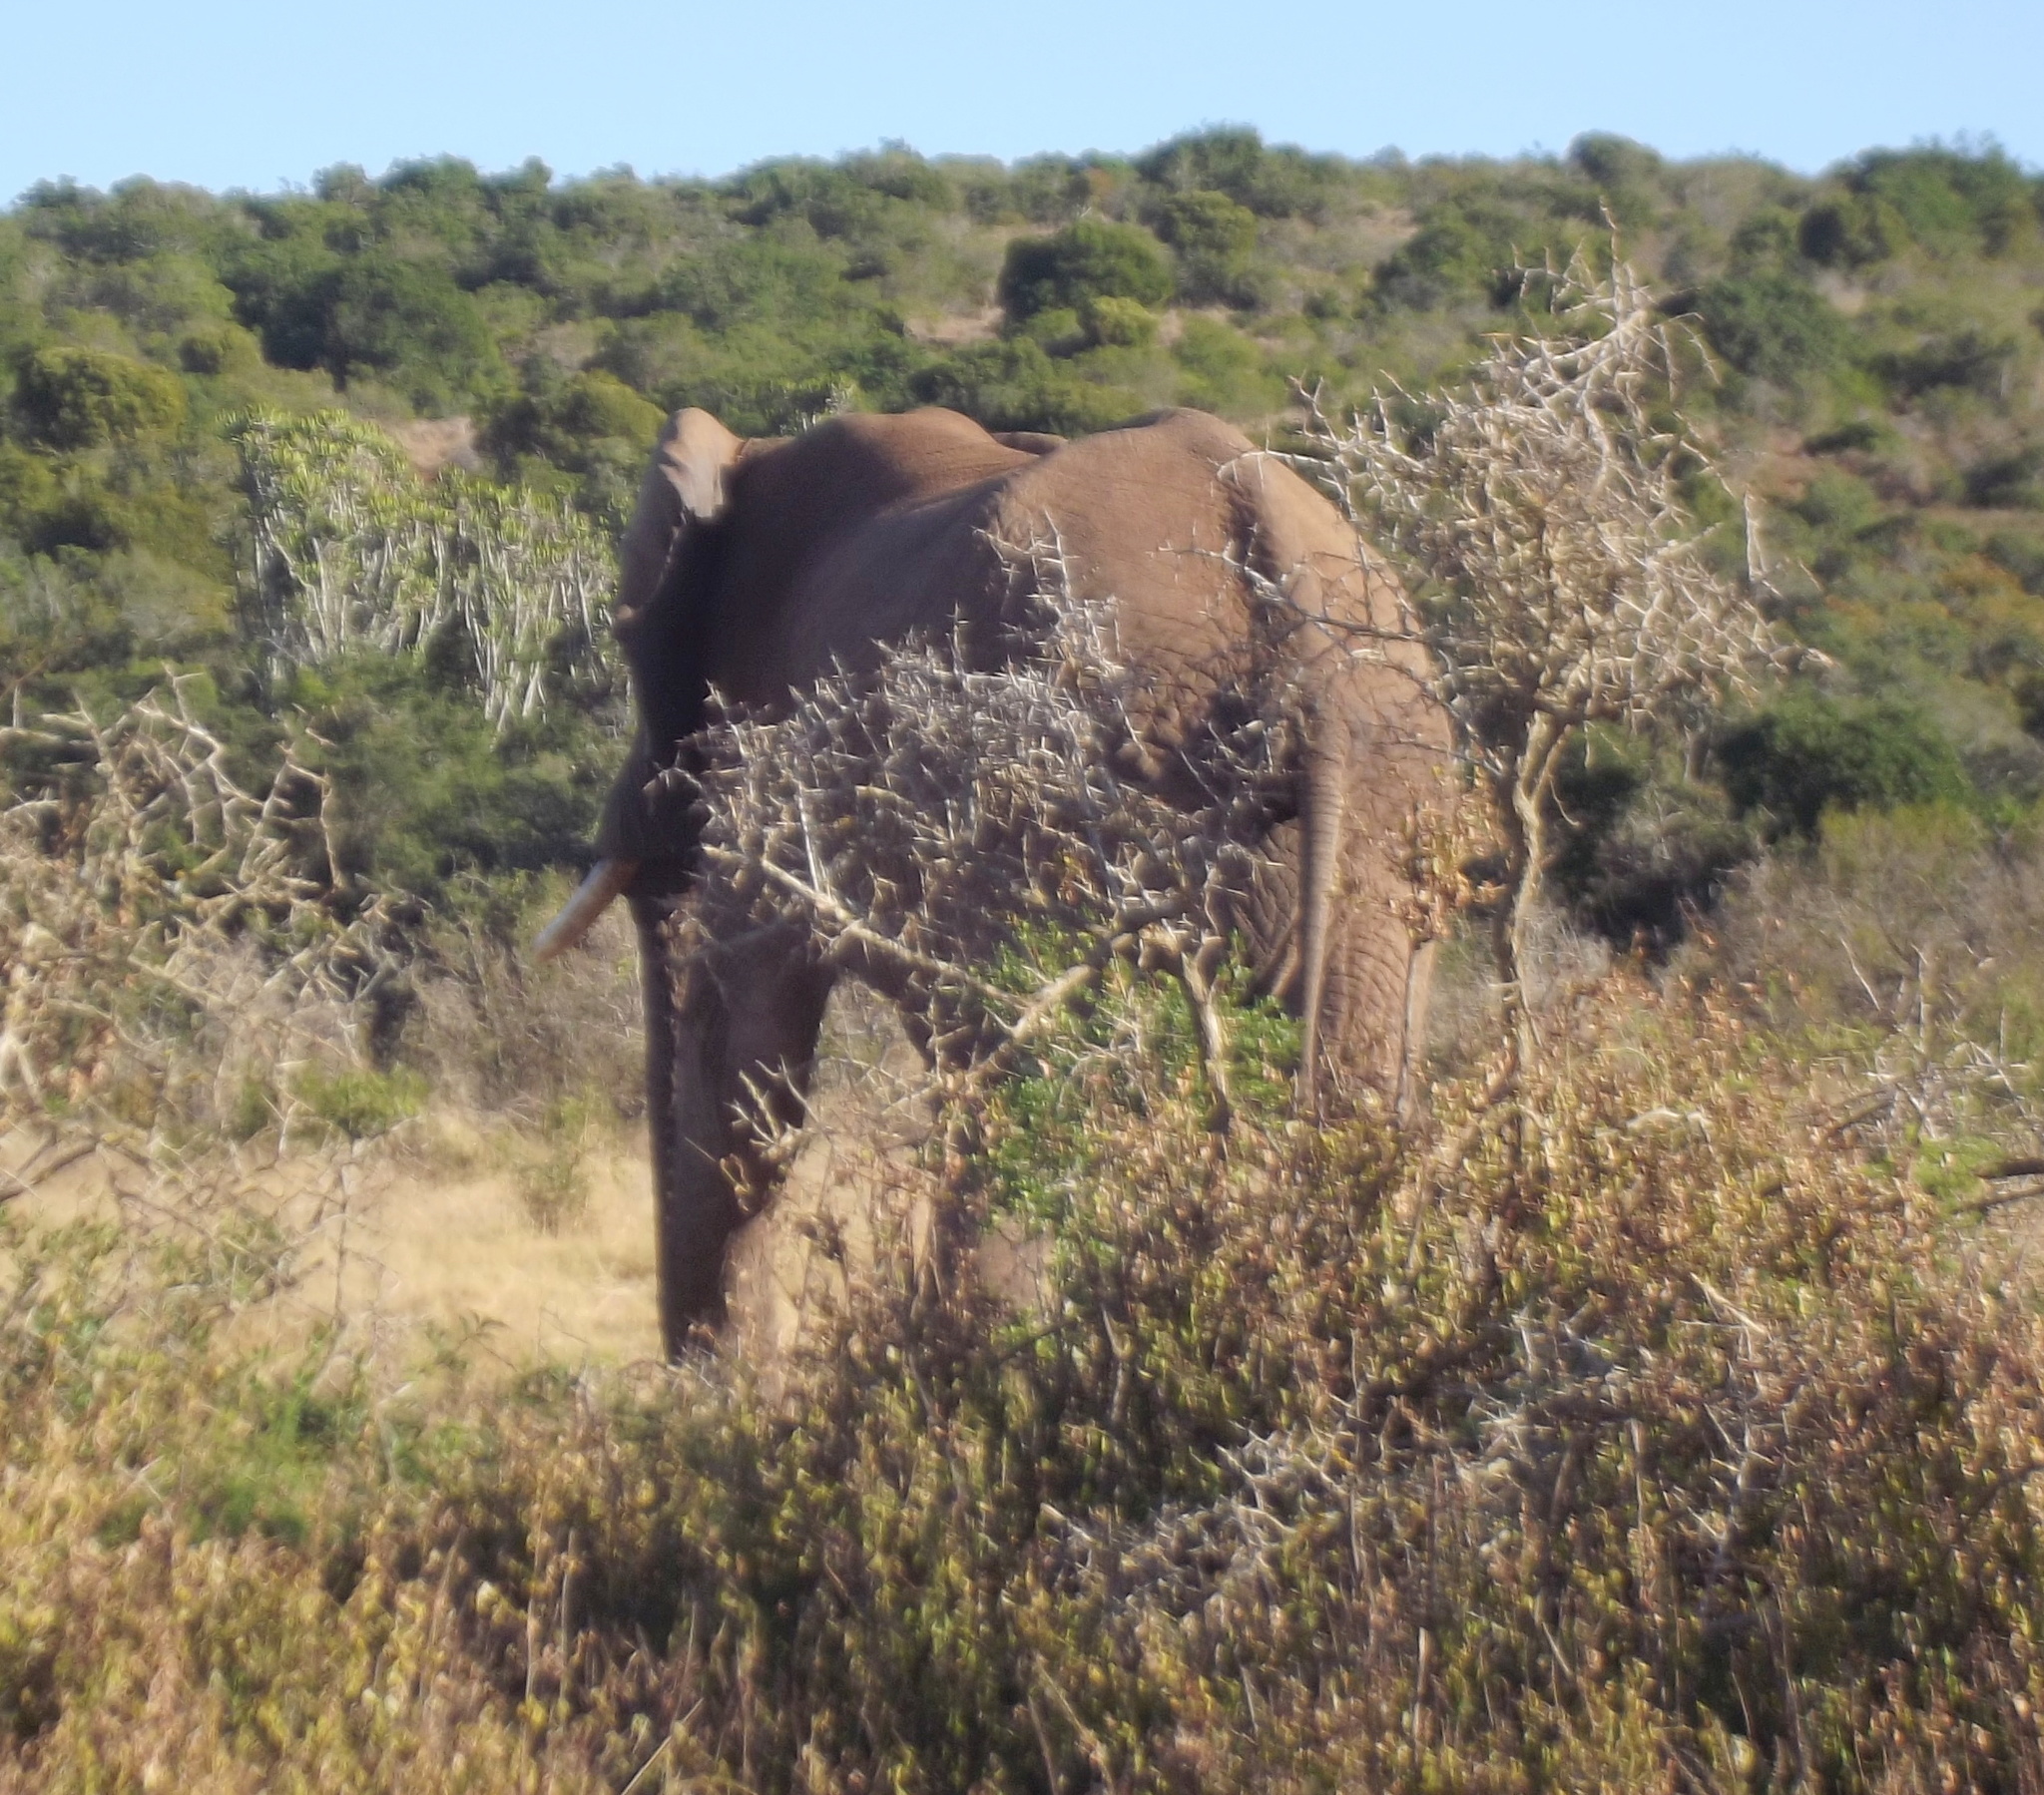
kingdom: Animalia
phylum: Chordata
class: Mammalia
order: Proboscidea
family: Elephantidae
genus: Loxodonta
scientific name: Loxodonta africana
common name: African elephant
